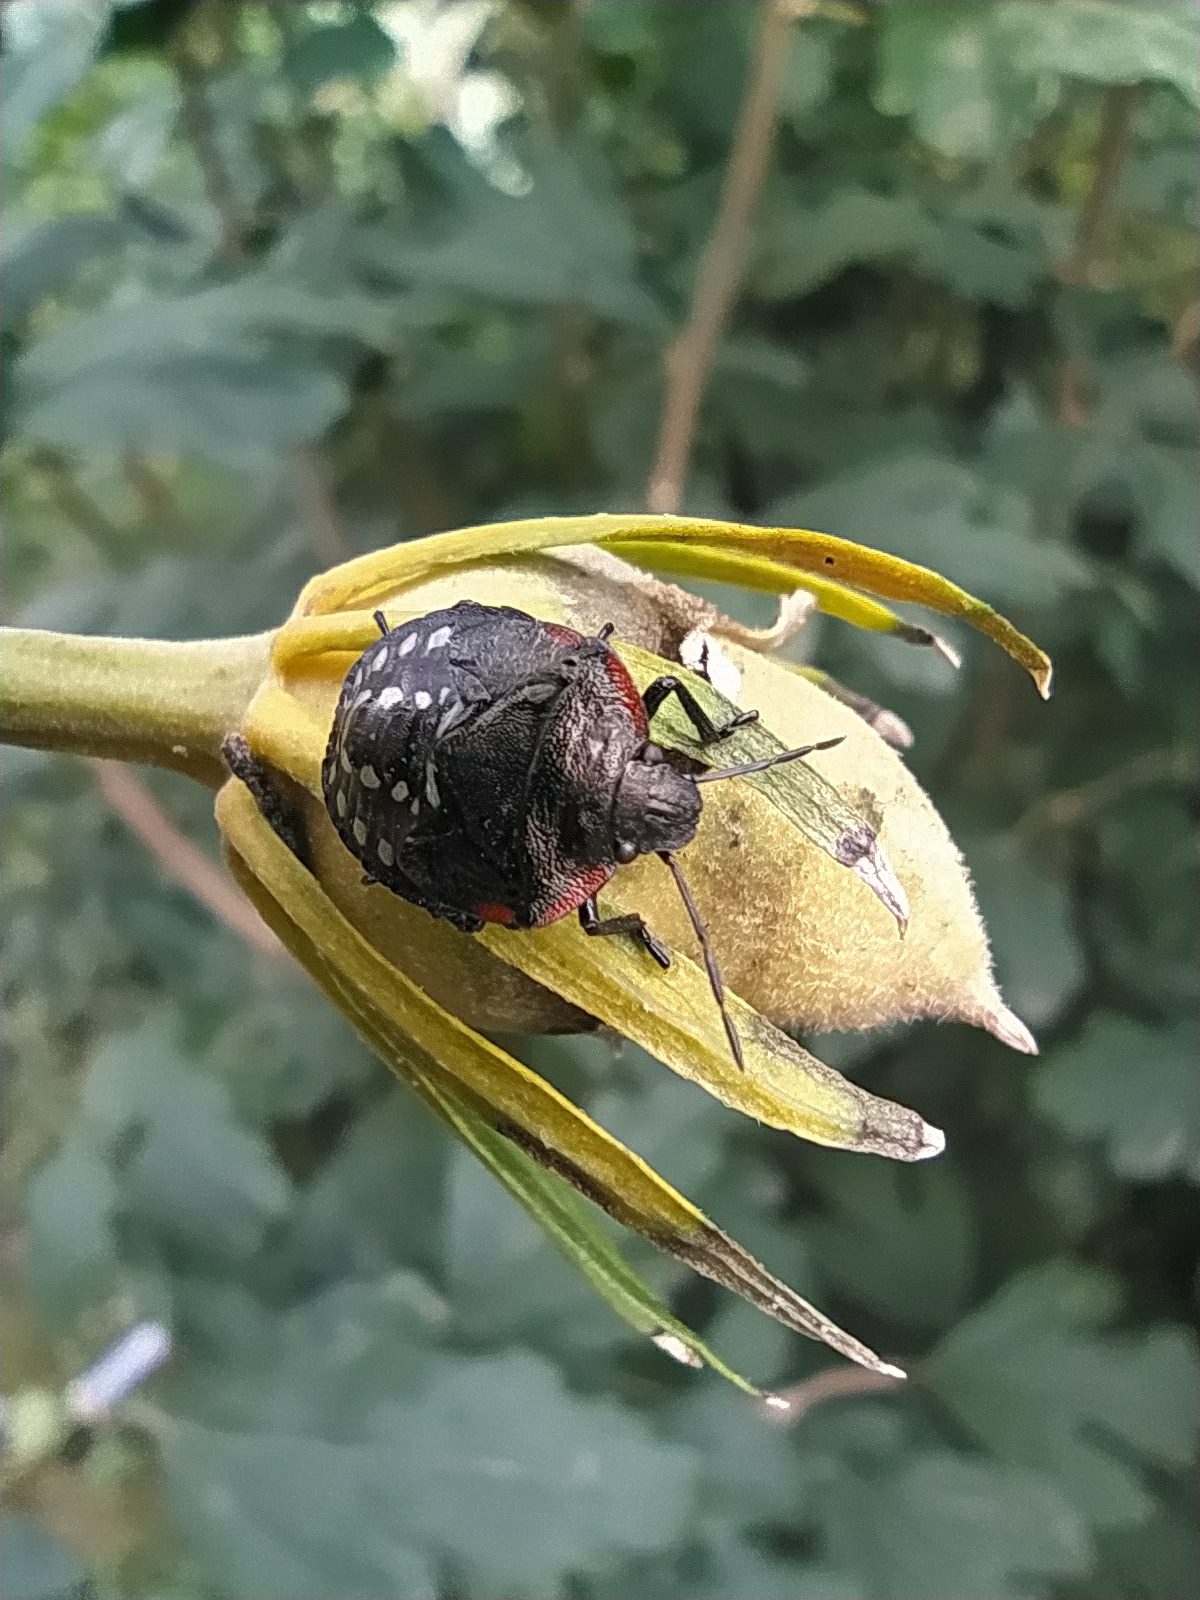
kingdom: Animalia
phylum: Arthropoda
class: Insecta
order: Hemiptera
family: Pentatomidae
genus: Nezara
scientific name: Nezara viridula
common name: Southern green stink bug
